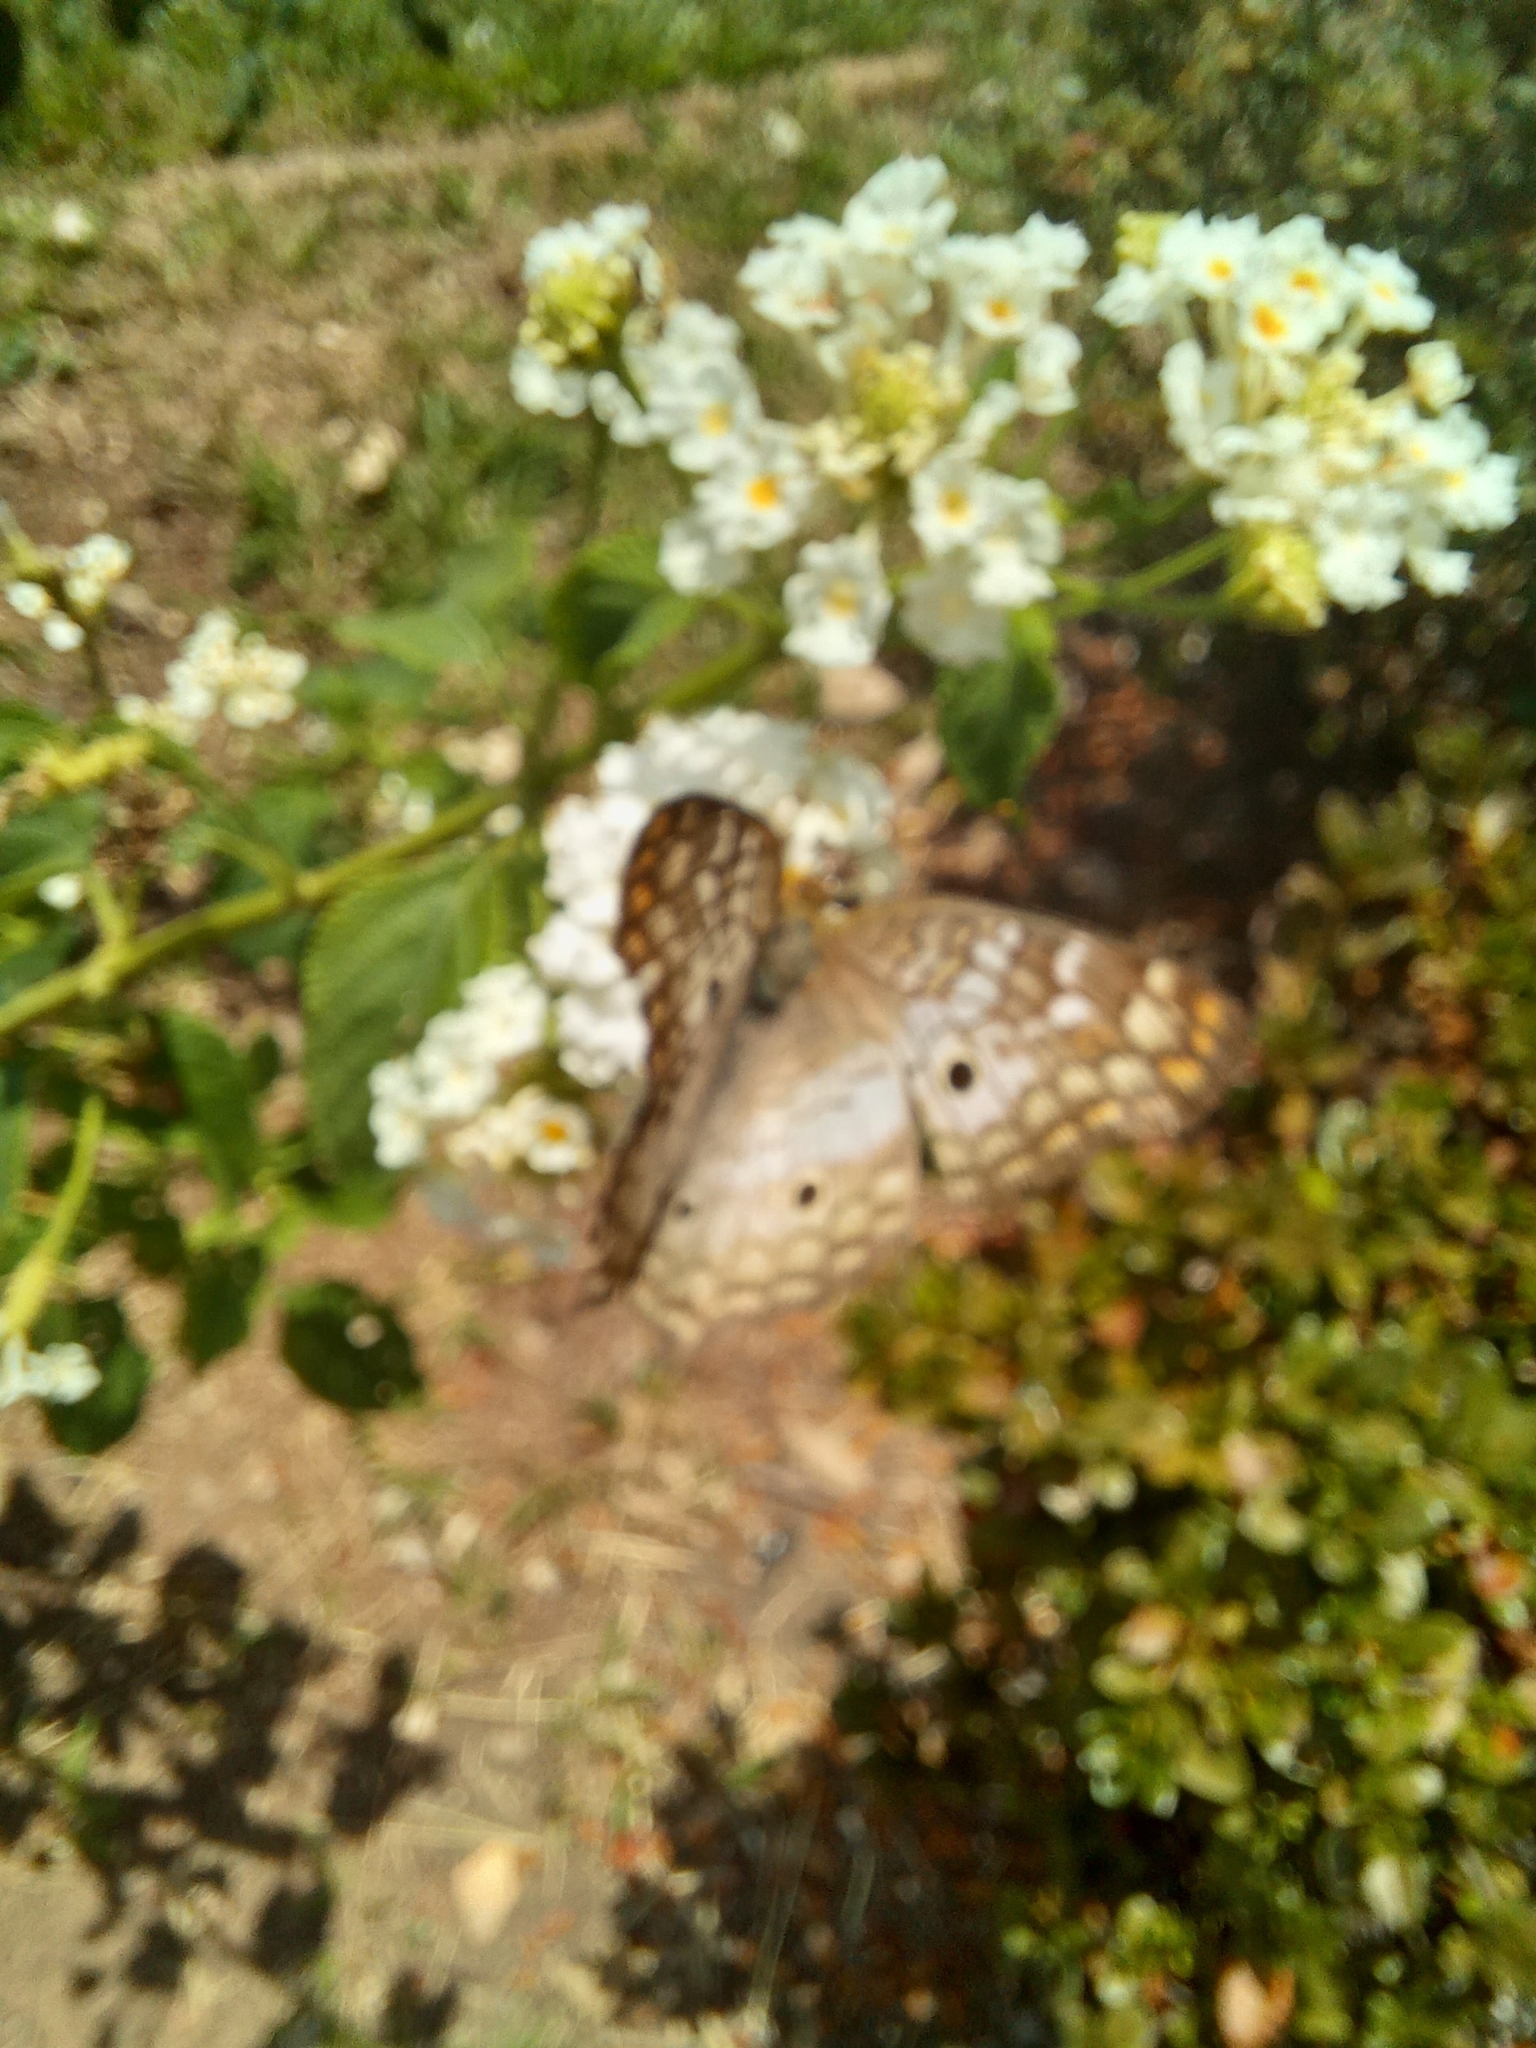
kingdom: Animalia
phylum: Arthropoda
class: Insecta
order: Lepidoptera
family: Nymphalidae
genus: Anartia
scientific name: Anartia jatrophae
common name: White peacock
